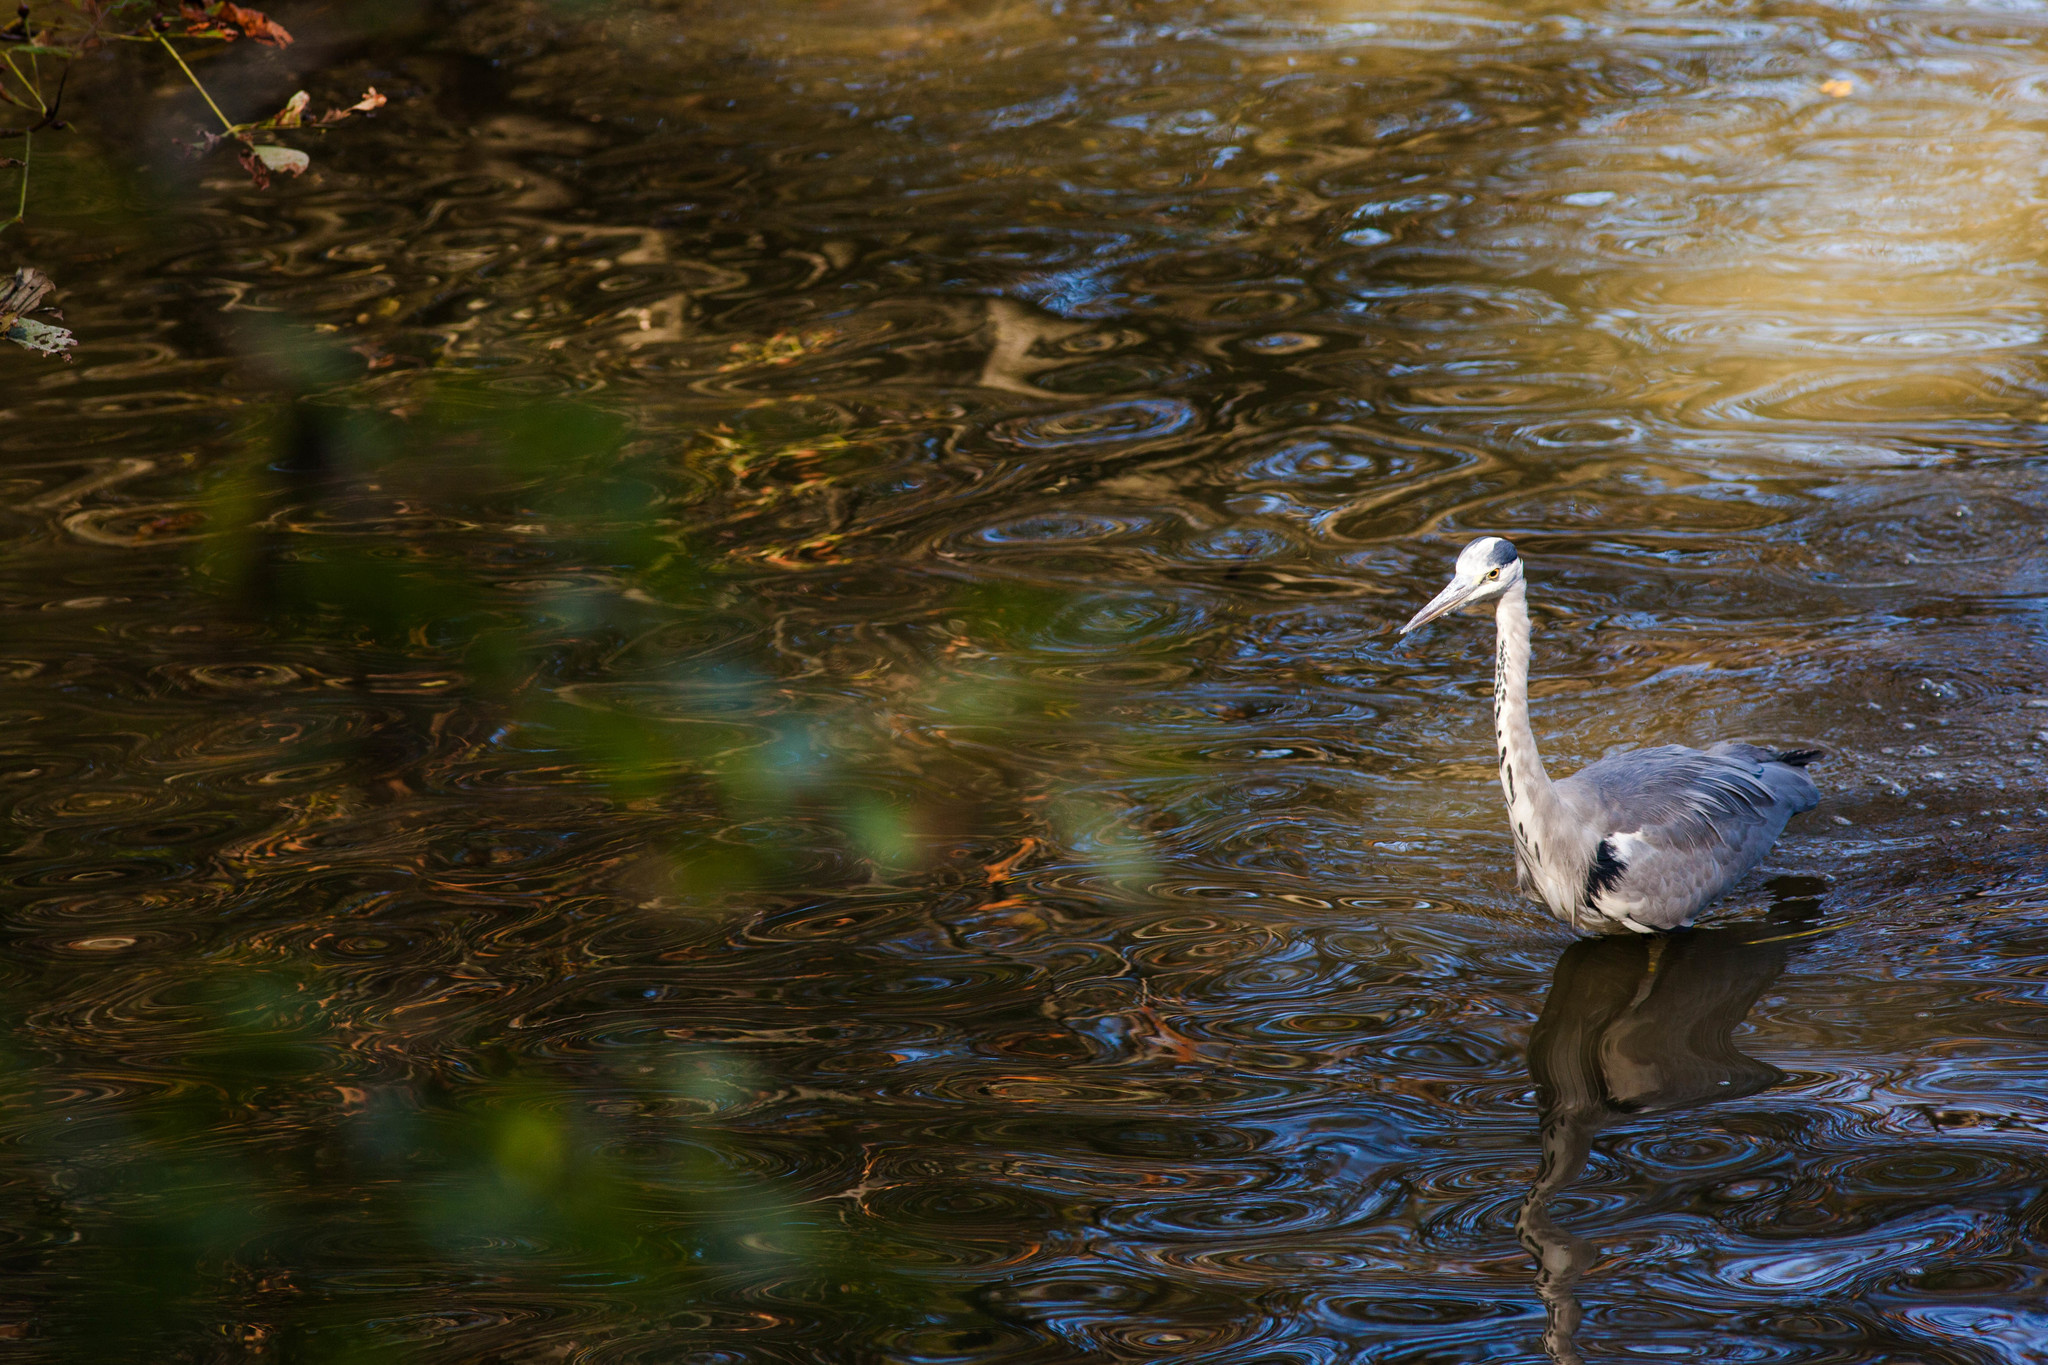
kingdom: Animalia
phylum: Chordata
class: Aves
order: Pelecaniformes
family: Ardeidae
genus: Ardea
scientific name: Ardea cinerea
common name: Grey heron
